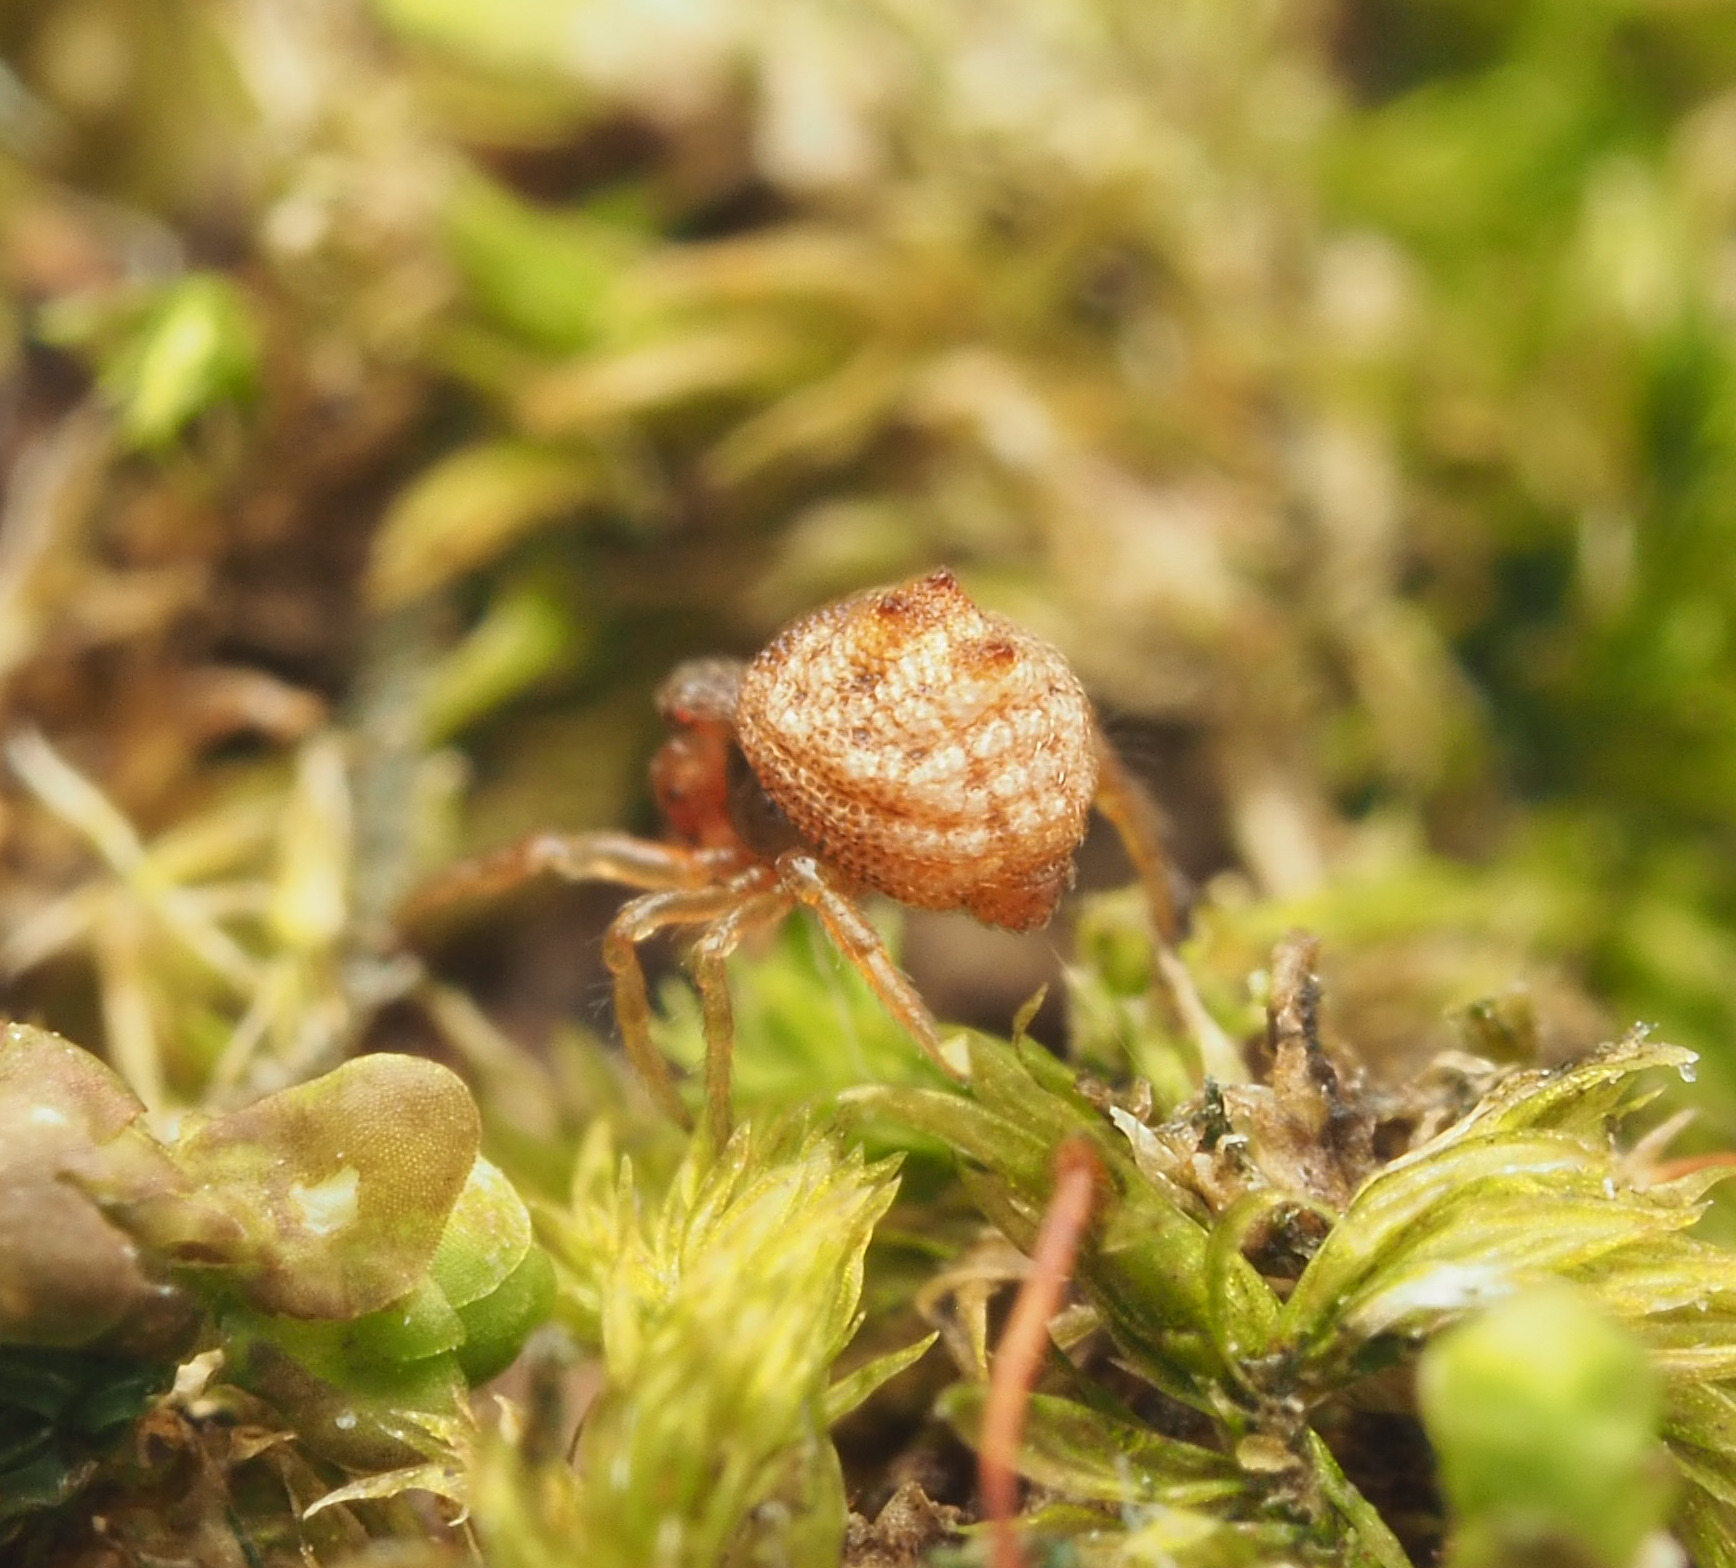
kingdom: Animalia
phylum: Arthropoda
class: Arachnida
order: Araneae
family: Theridiidae
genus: Phoroncidia
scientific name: Phoroncidia trituberculata
